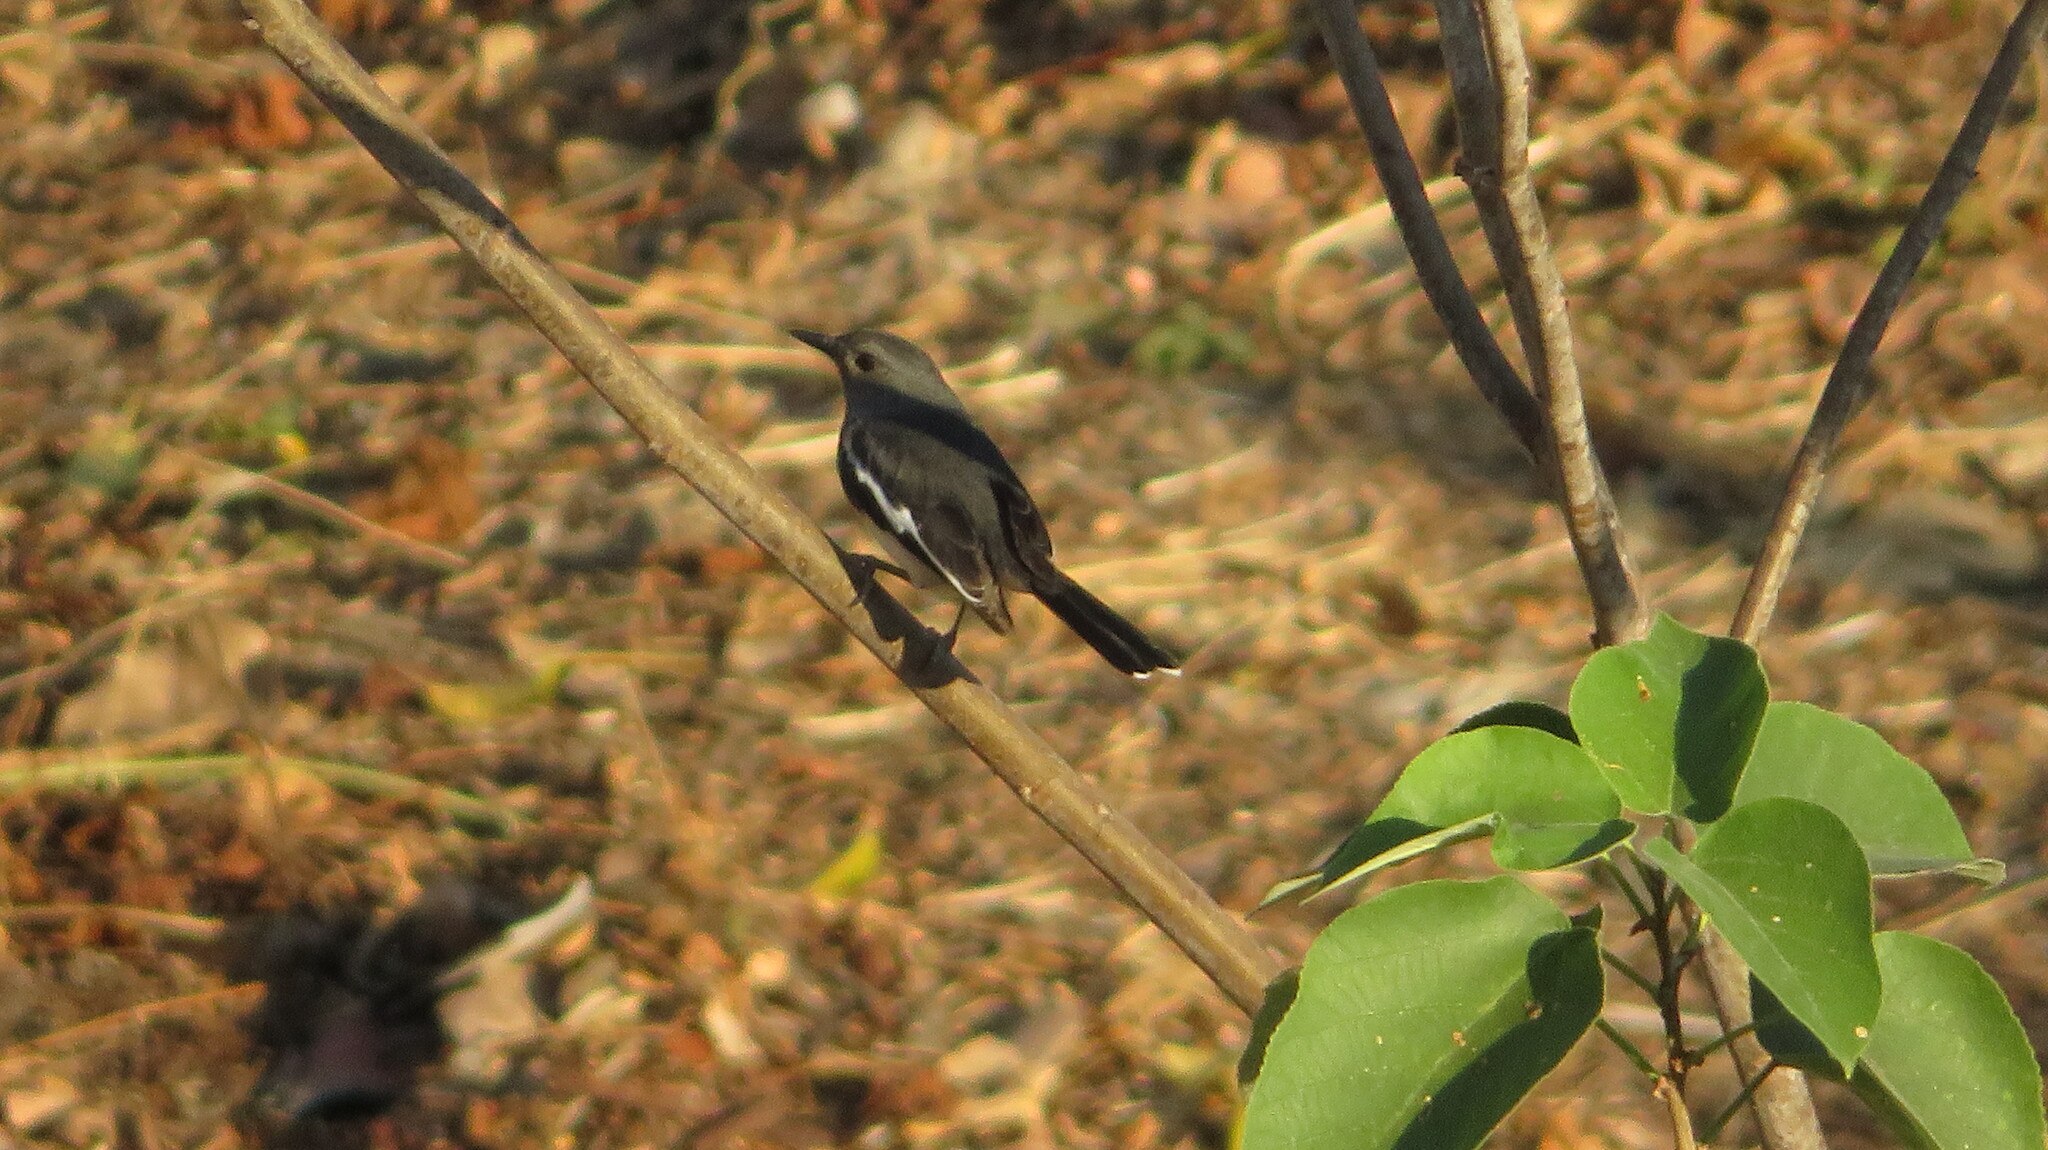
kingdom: Animalia
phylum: Chordata
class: Aves
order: Passeriformes
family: Muscicapidae
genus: Copsychus
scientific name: Copsychus saularis
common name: Oriental magpie-robin
